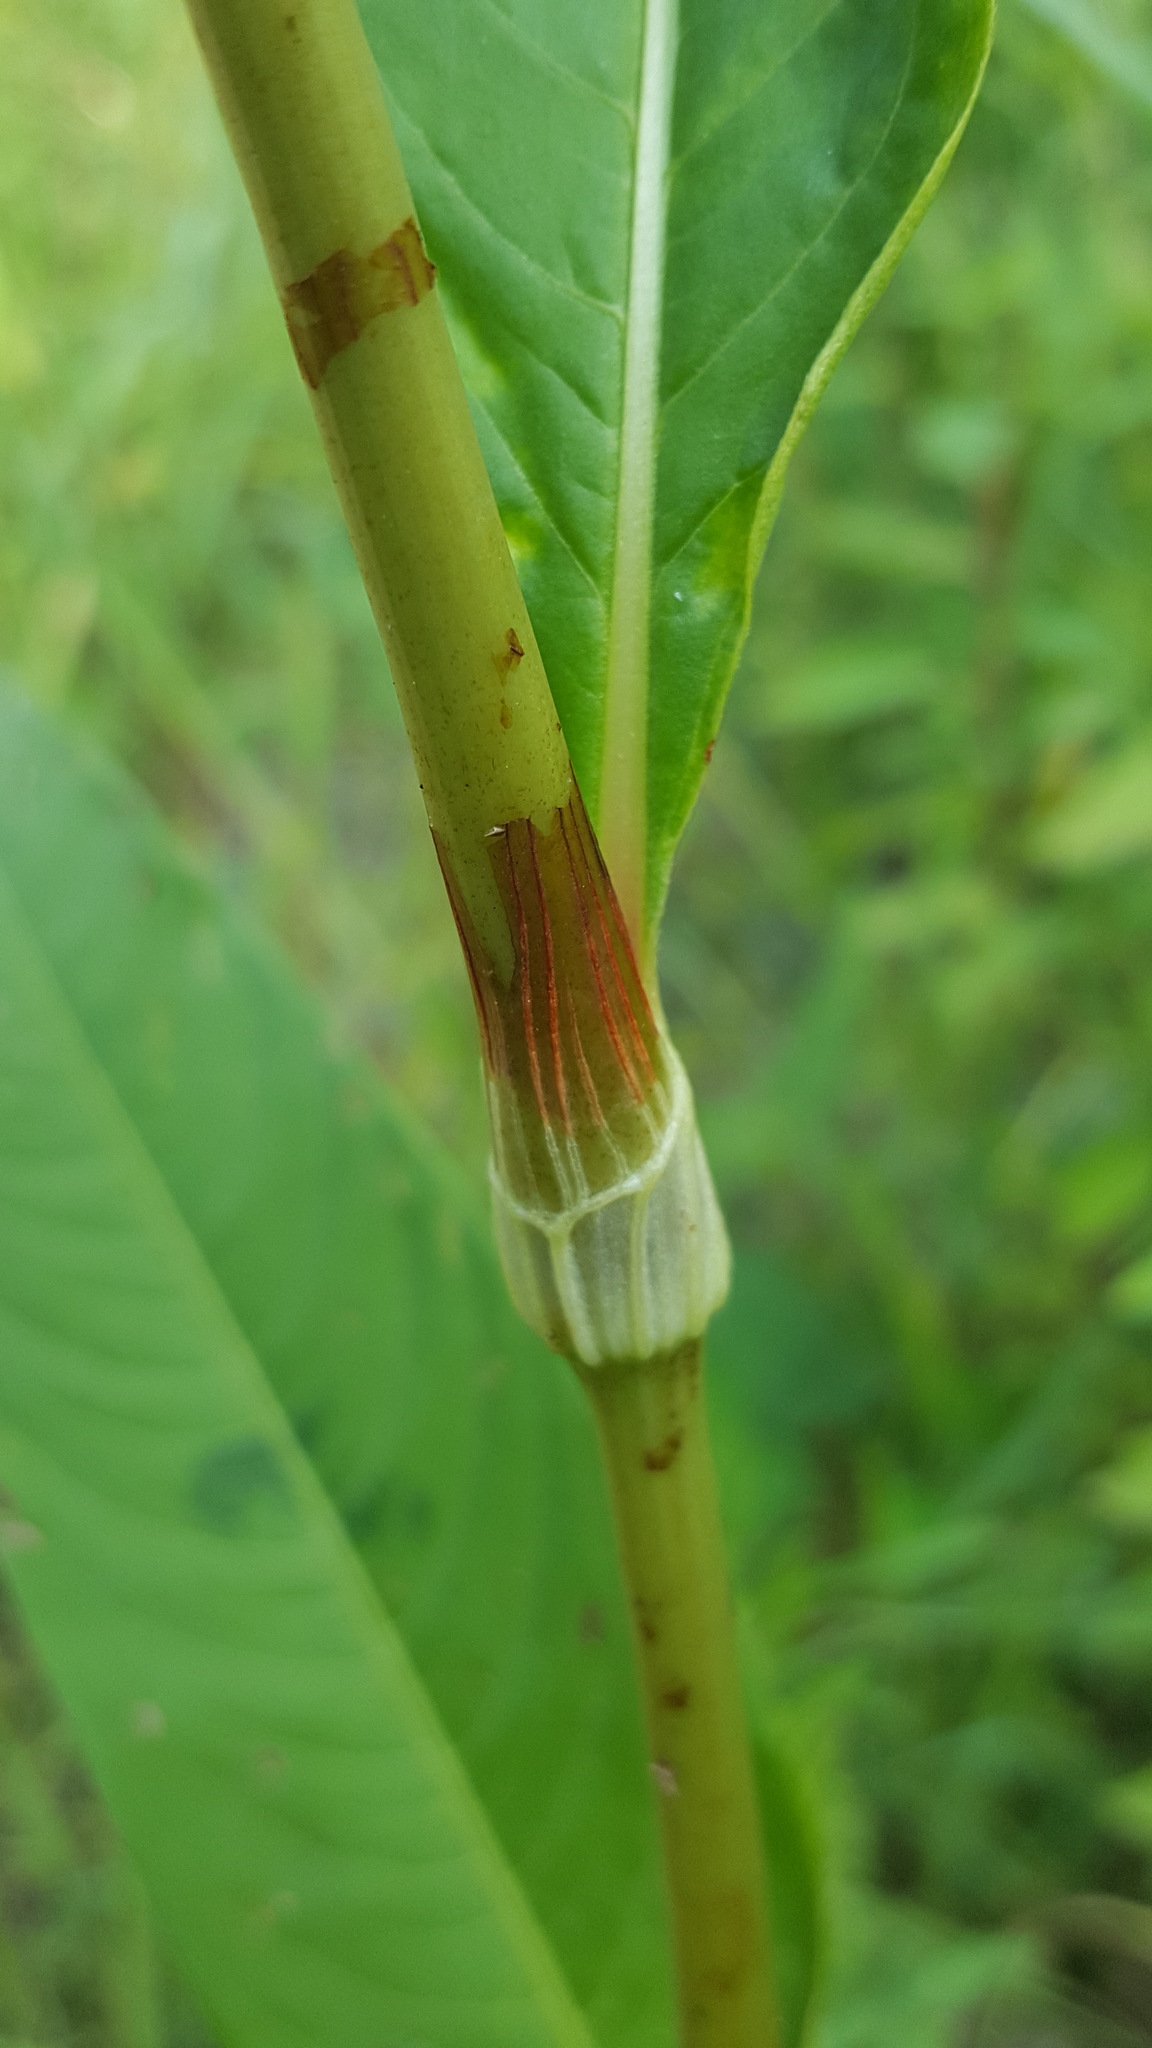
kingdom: Plantae
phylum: Tracheophyta
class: Magnoliopsida
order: Caryophyllales
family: Polygonaceae
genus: Persicaria
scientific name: Persicaria lapathifolia
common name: Curlytop knotweed
